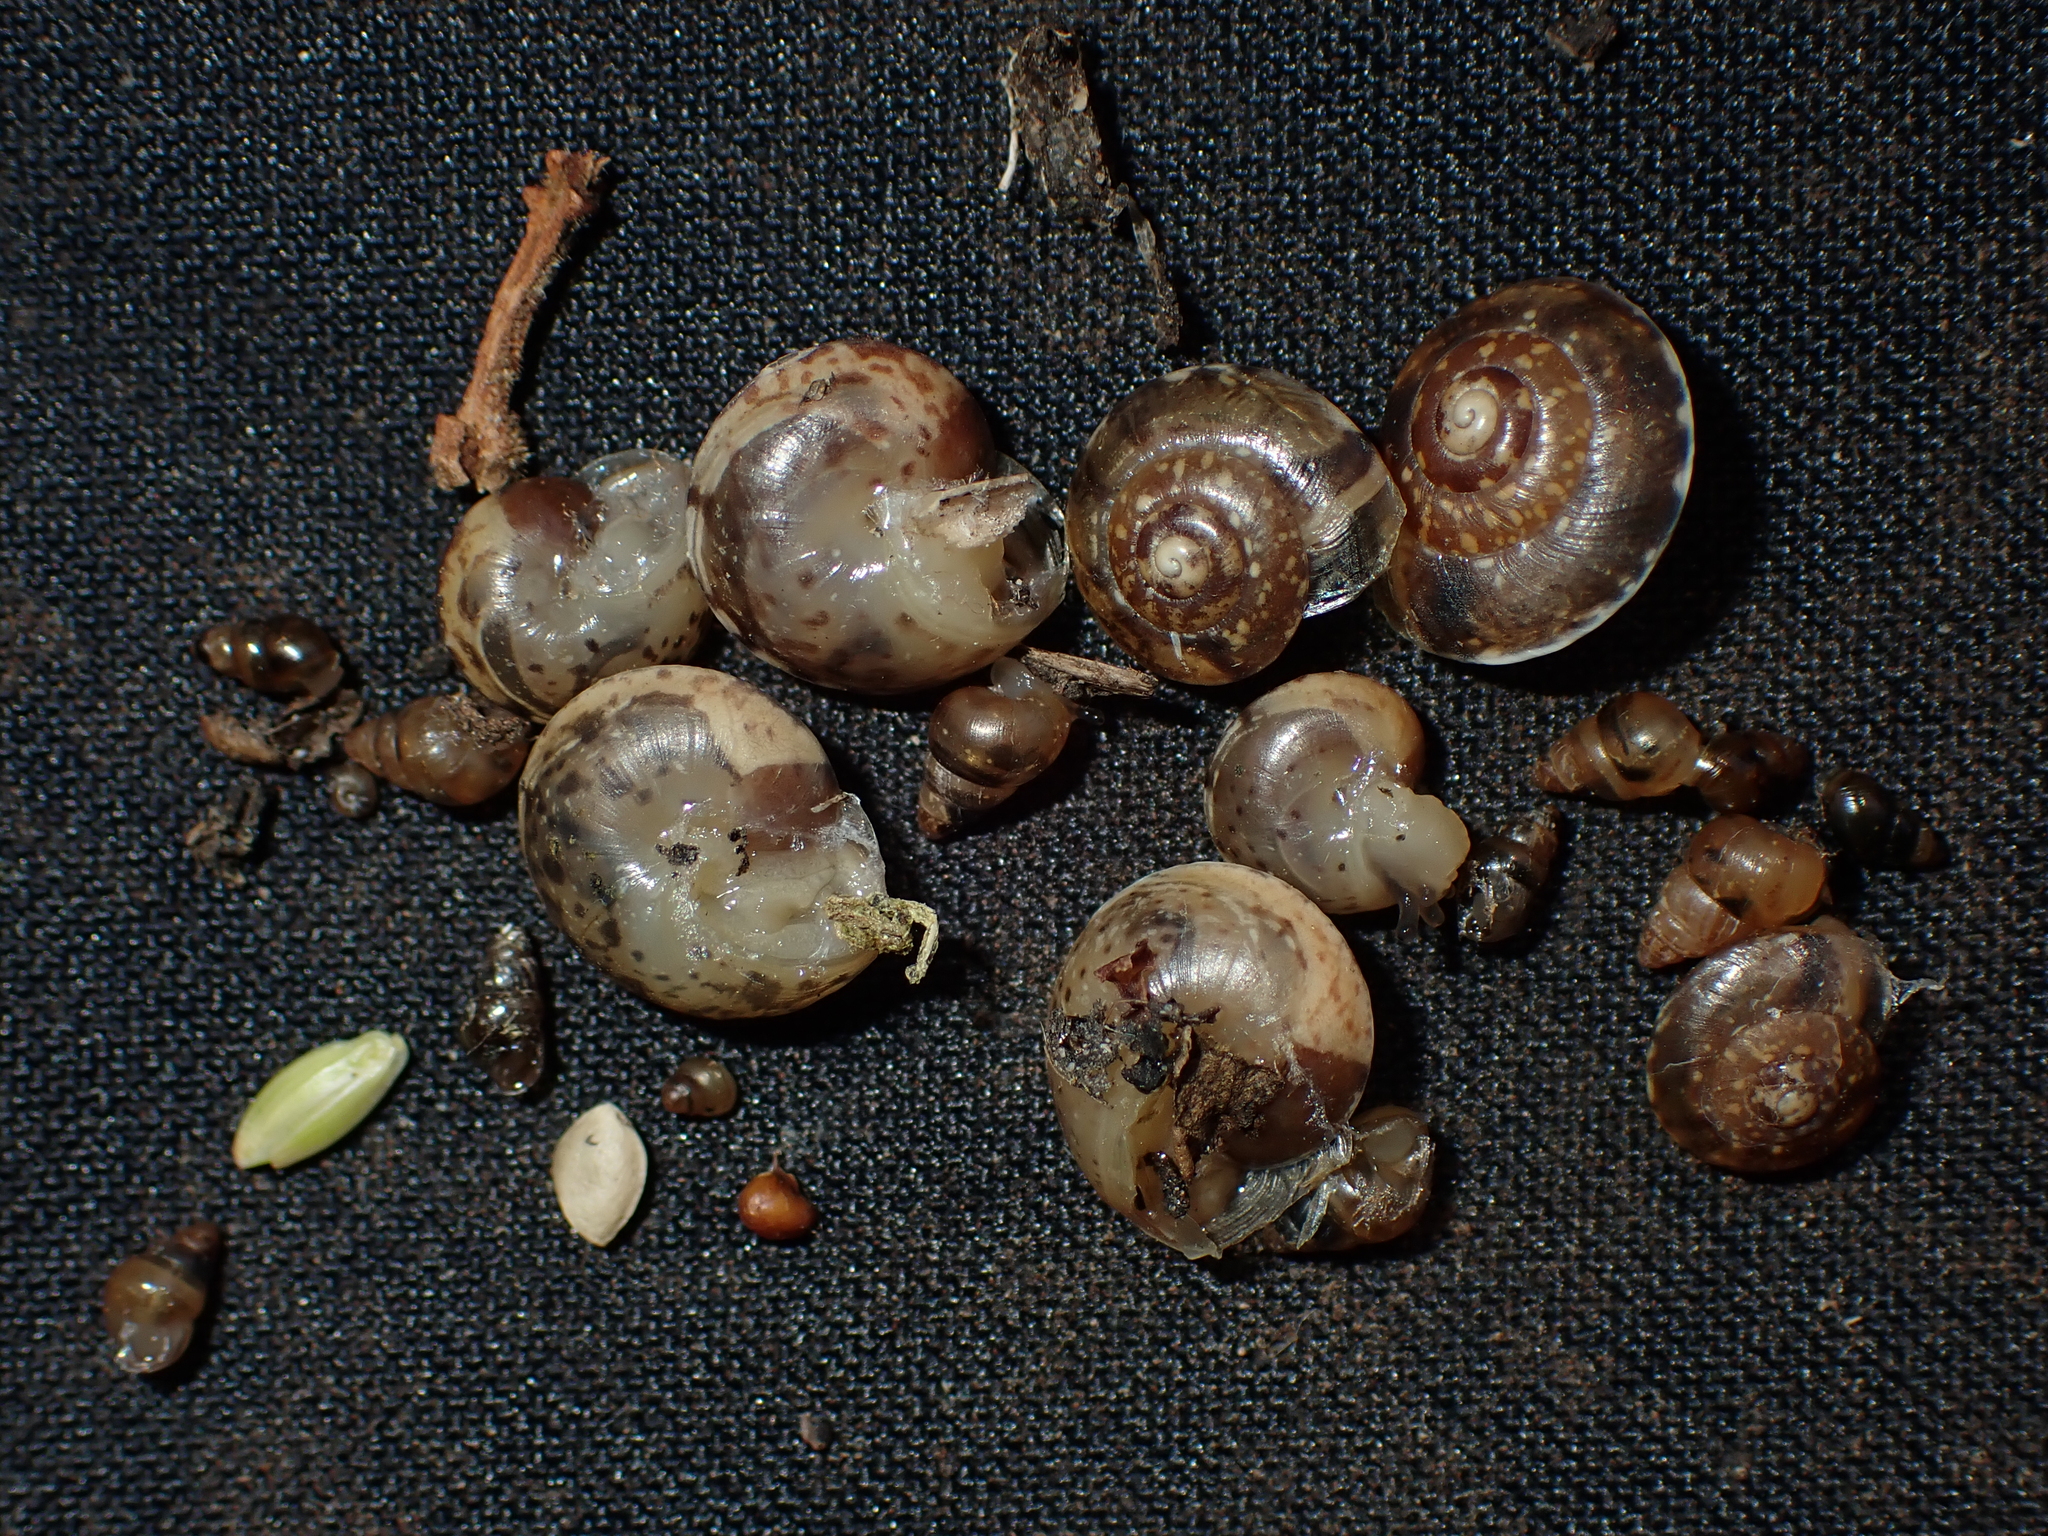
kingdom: Animalia
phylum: Mollusca
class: Gastropoda
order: Stylommatophora
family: Hygromiidae
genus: Hygromia
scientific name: Hygromia cinctella
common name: Girdled snail
